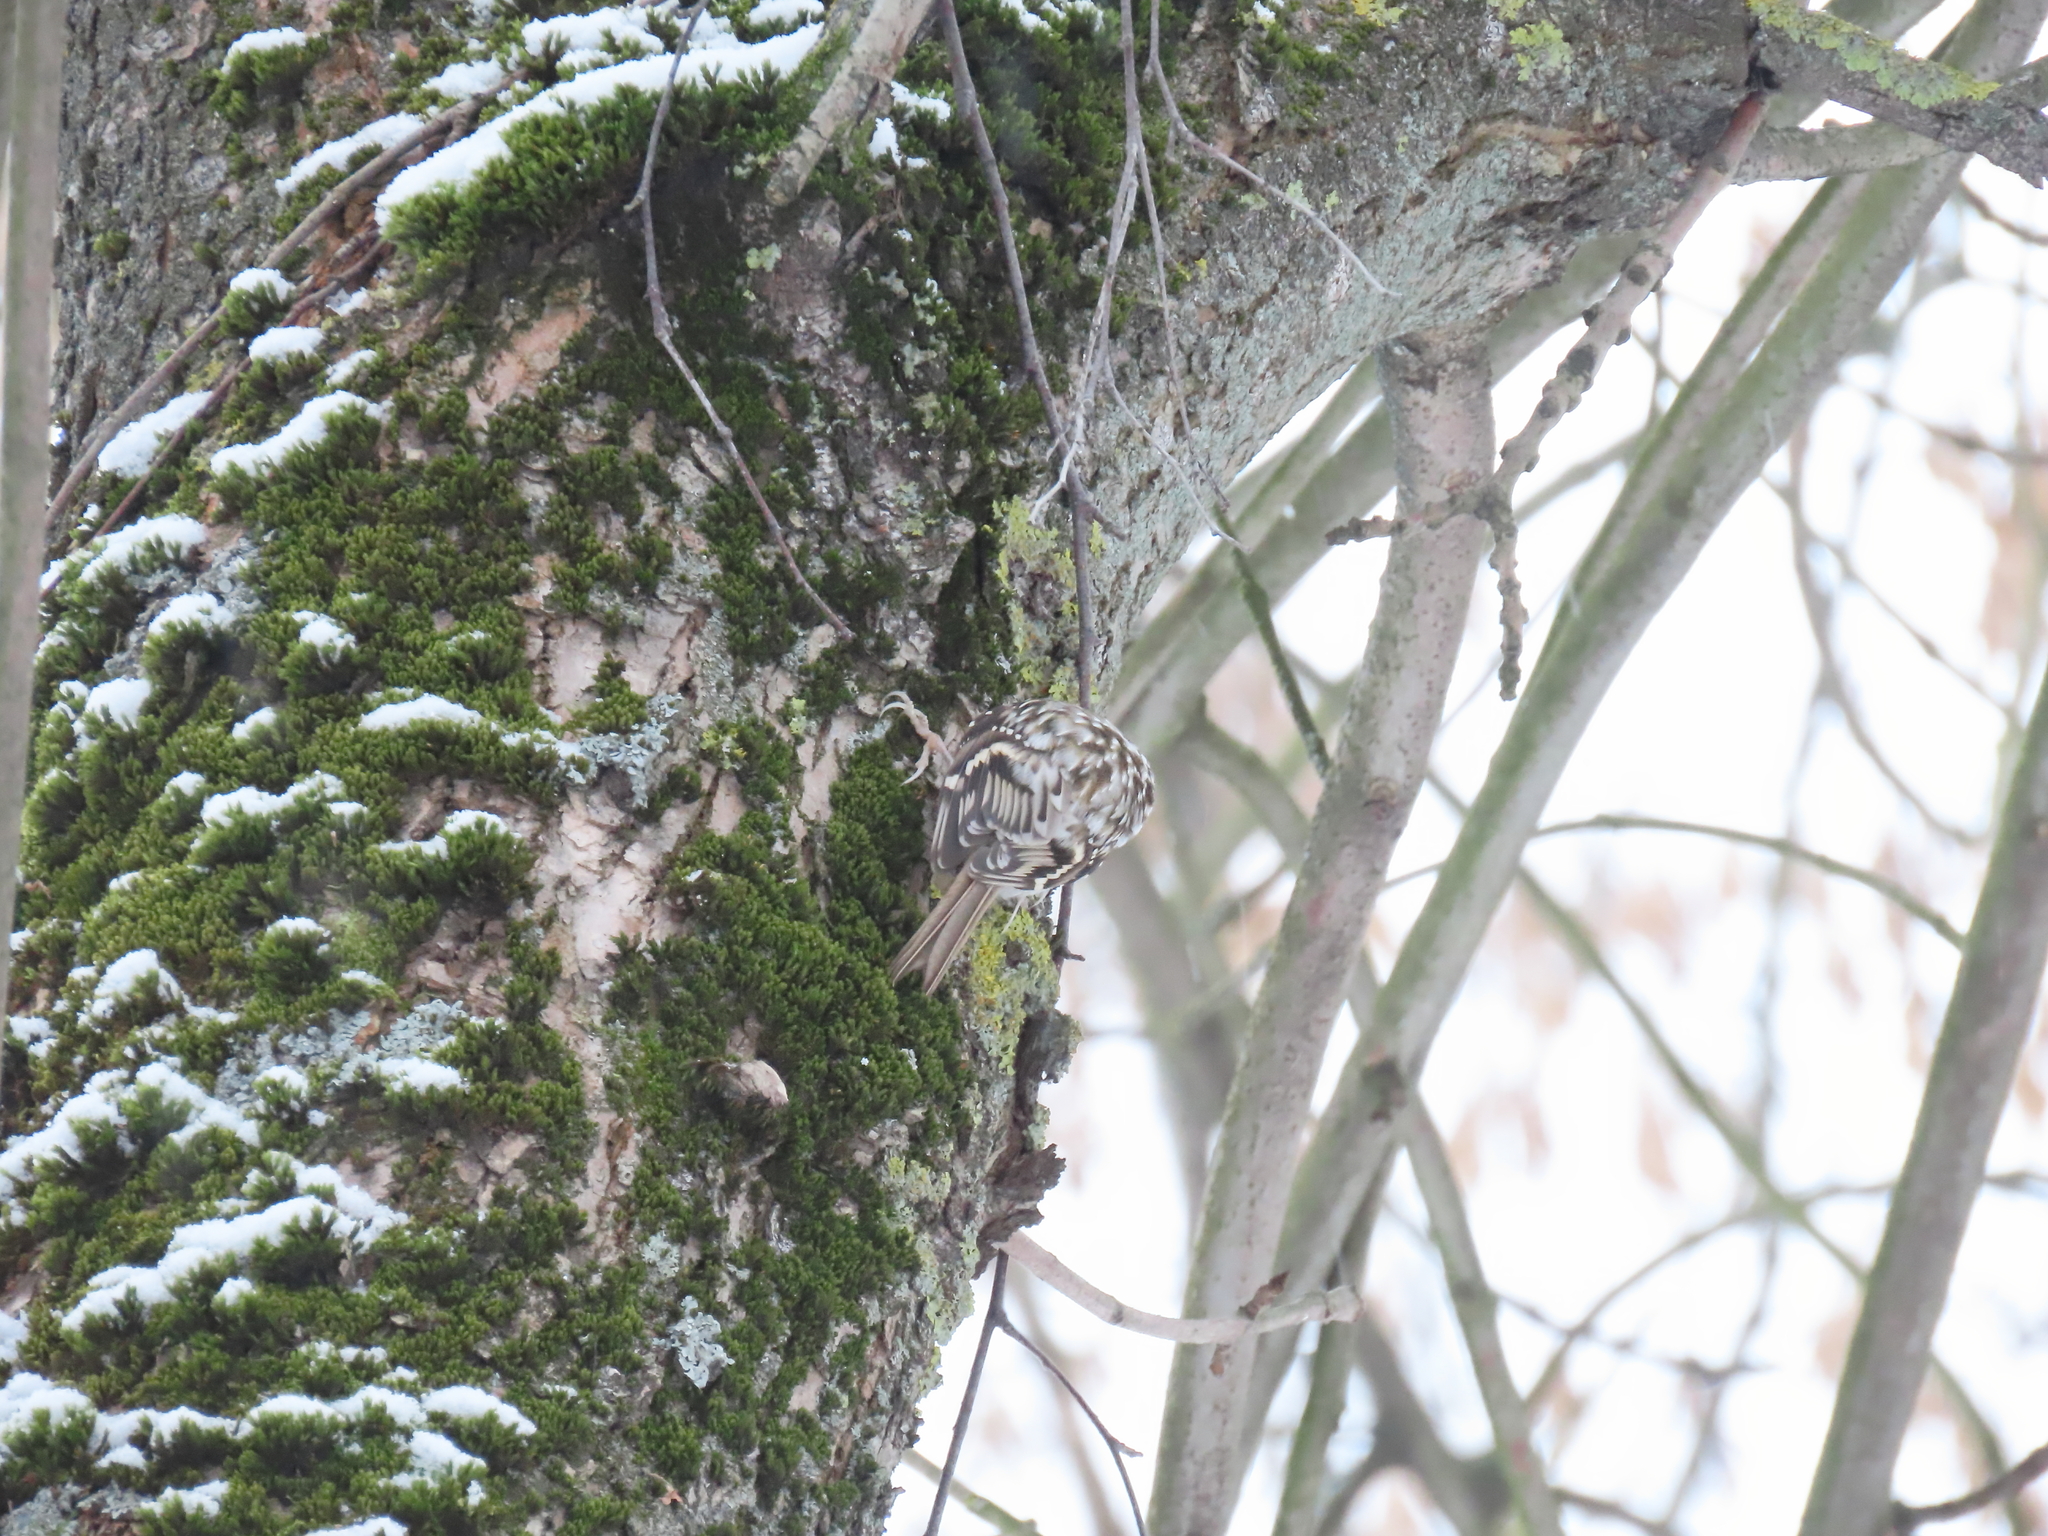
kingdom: Animalia
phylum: Chordata
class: Aves
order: Passeriformes
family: Certhiidae
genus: Certhia
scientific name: Certhia familiaris
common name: Eurasian treecreeper
